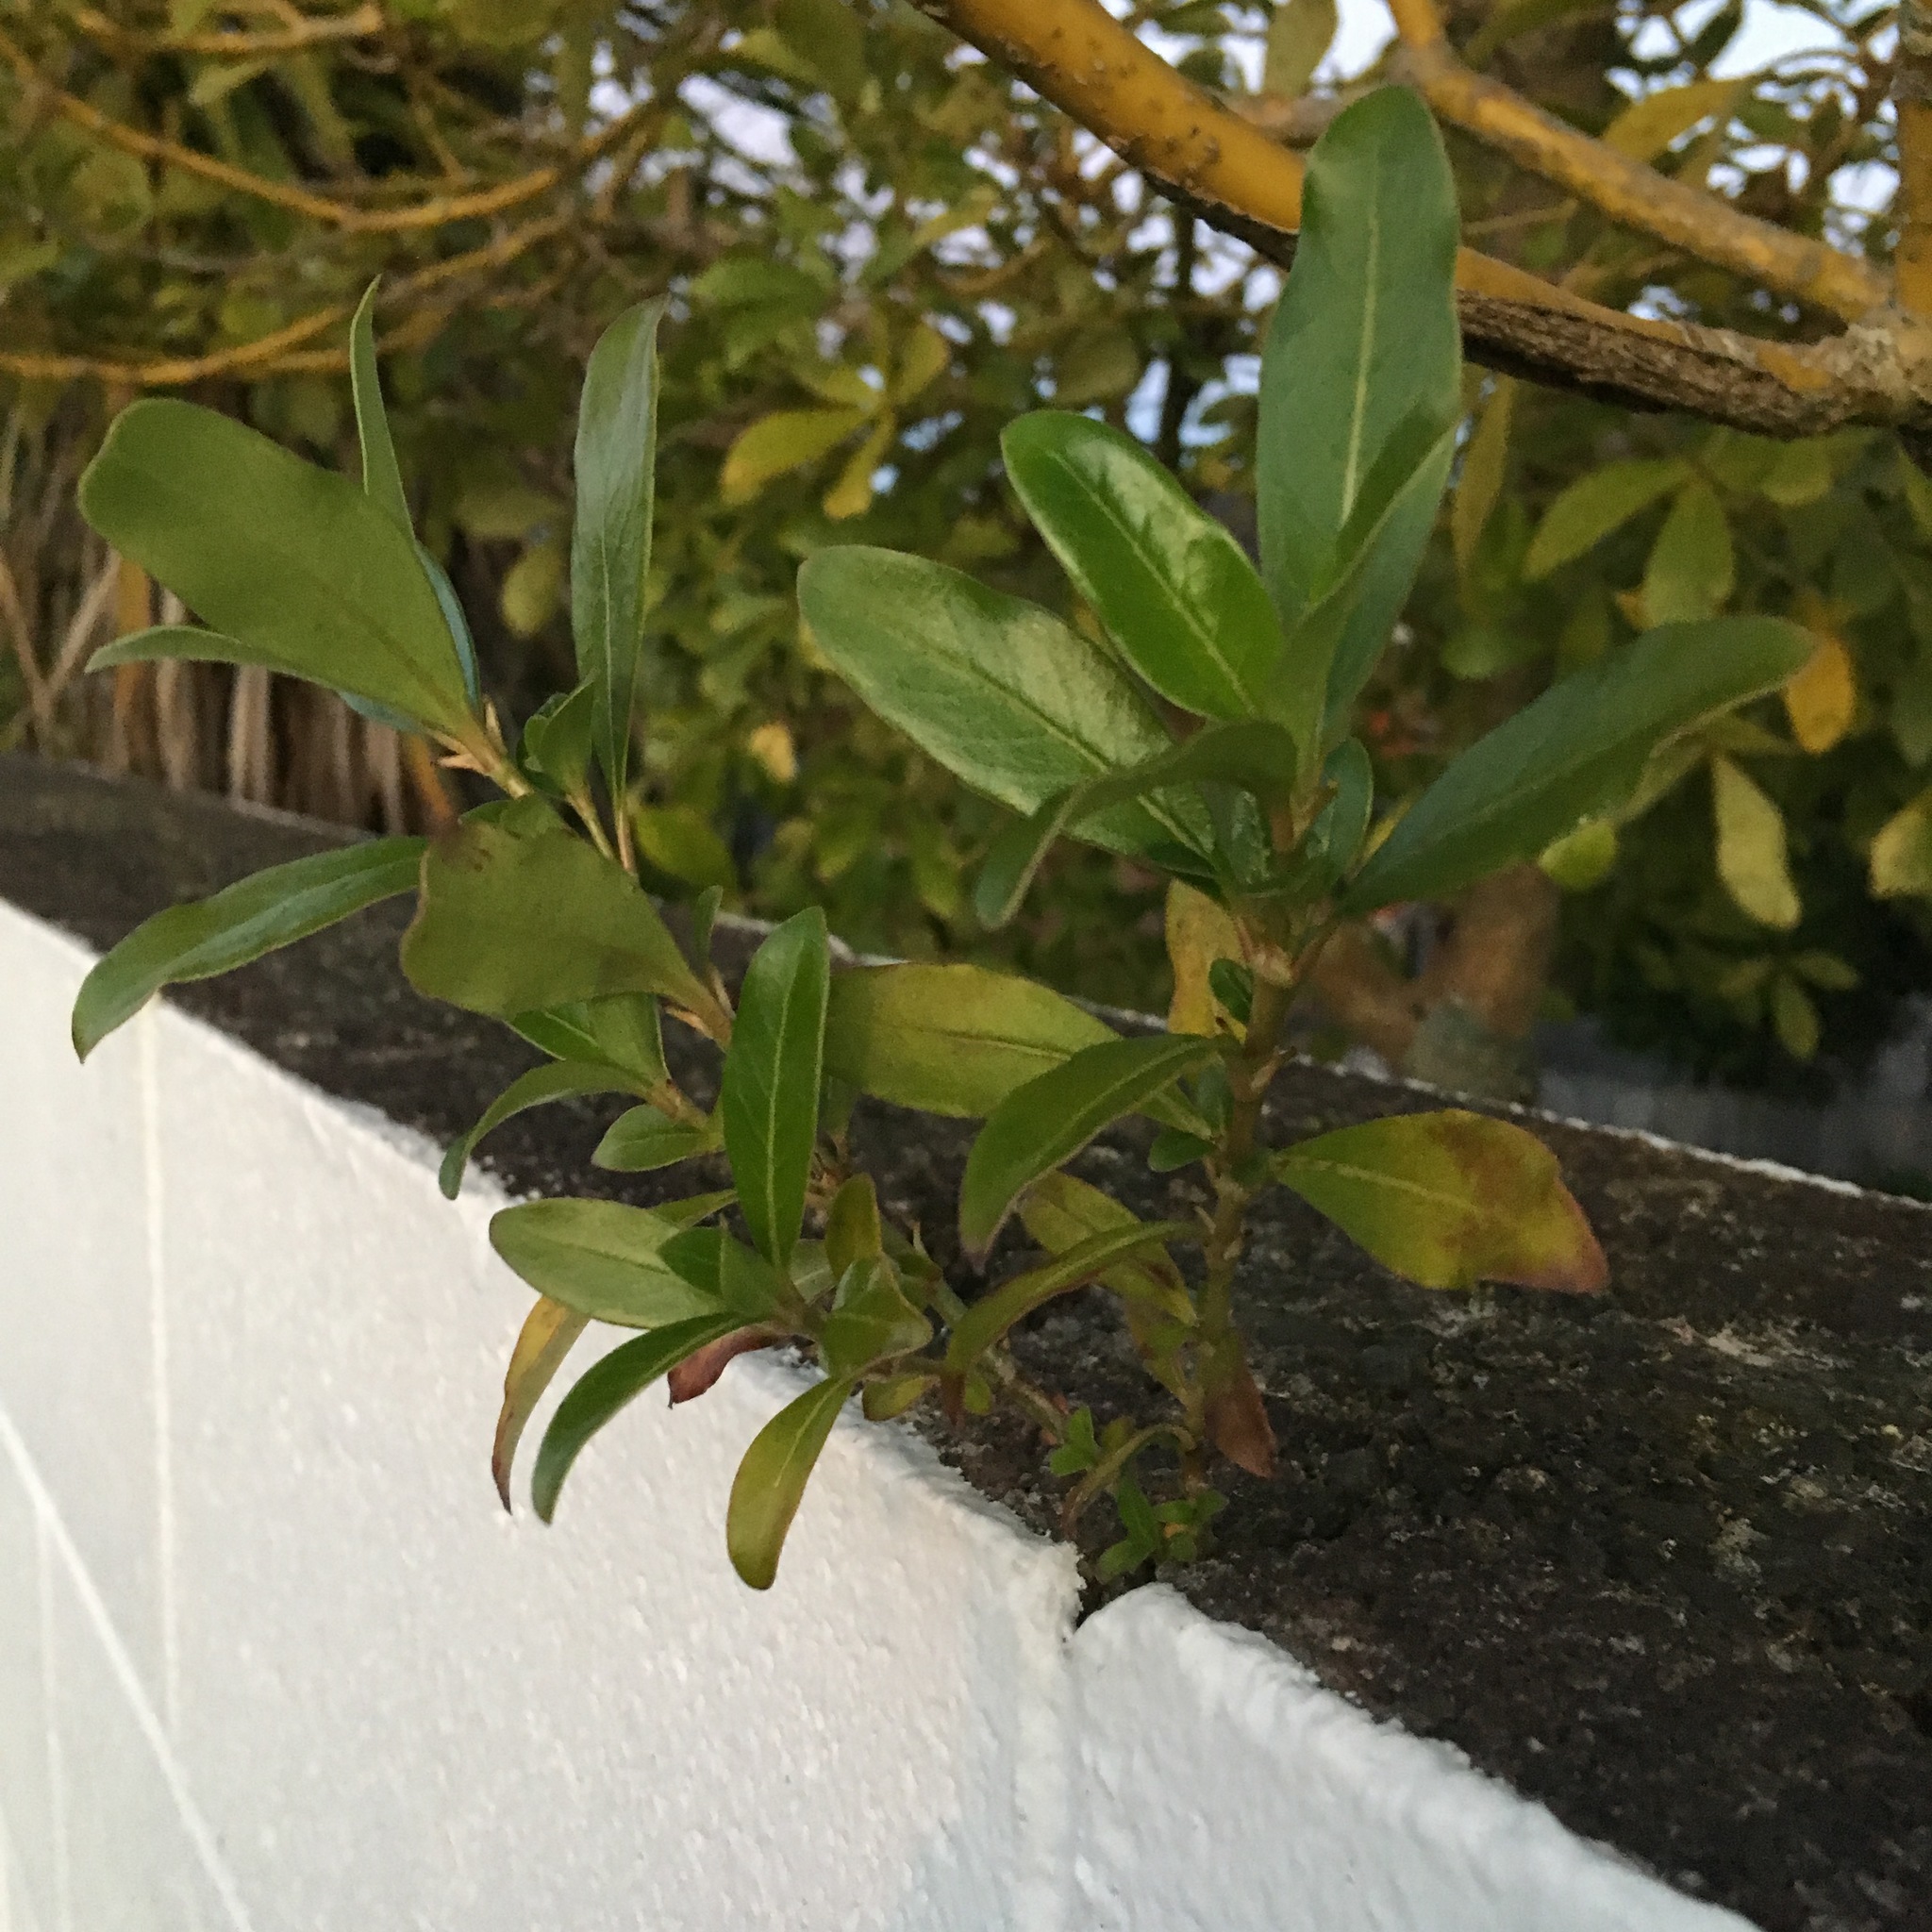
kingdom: Plantae
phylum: Tracheophyta
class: Magnoliopsida
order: Gentianales
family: Rubiaceae
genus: Coprosma
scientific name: Coprosma robusta
